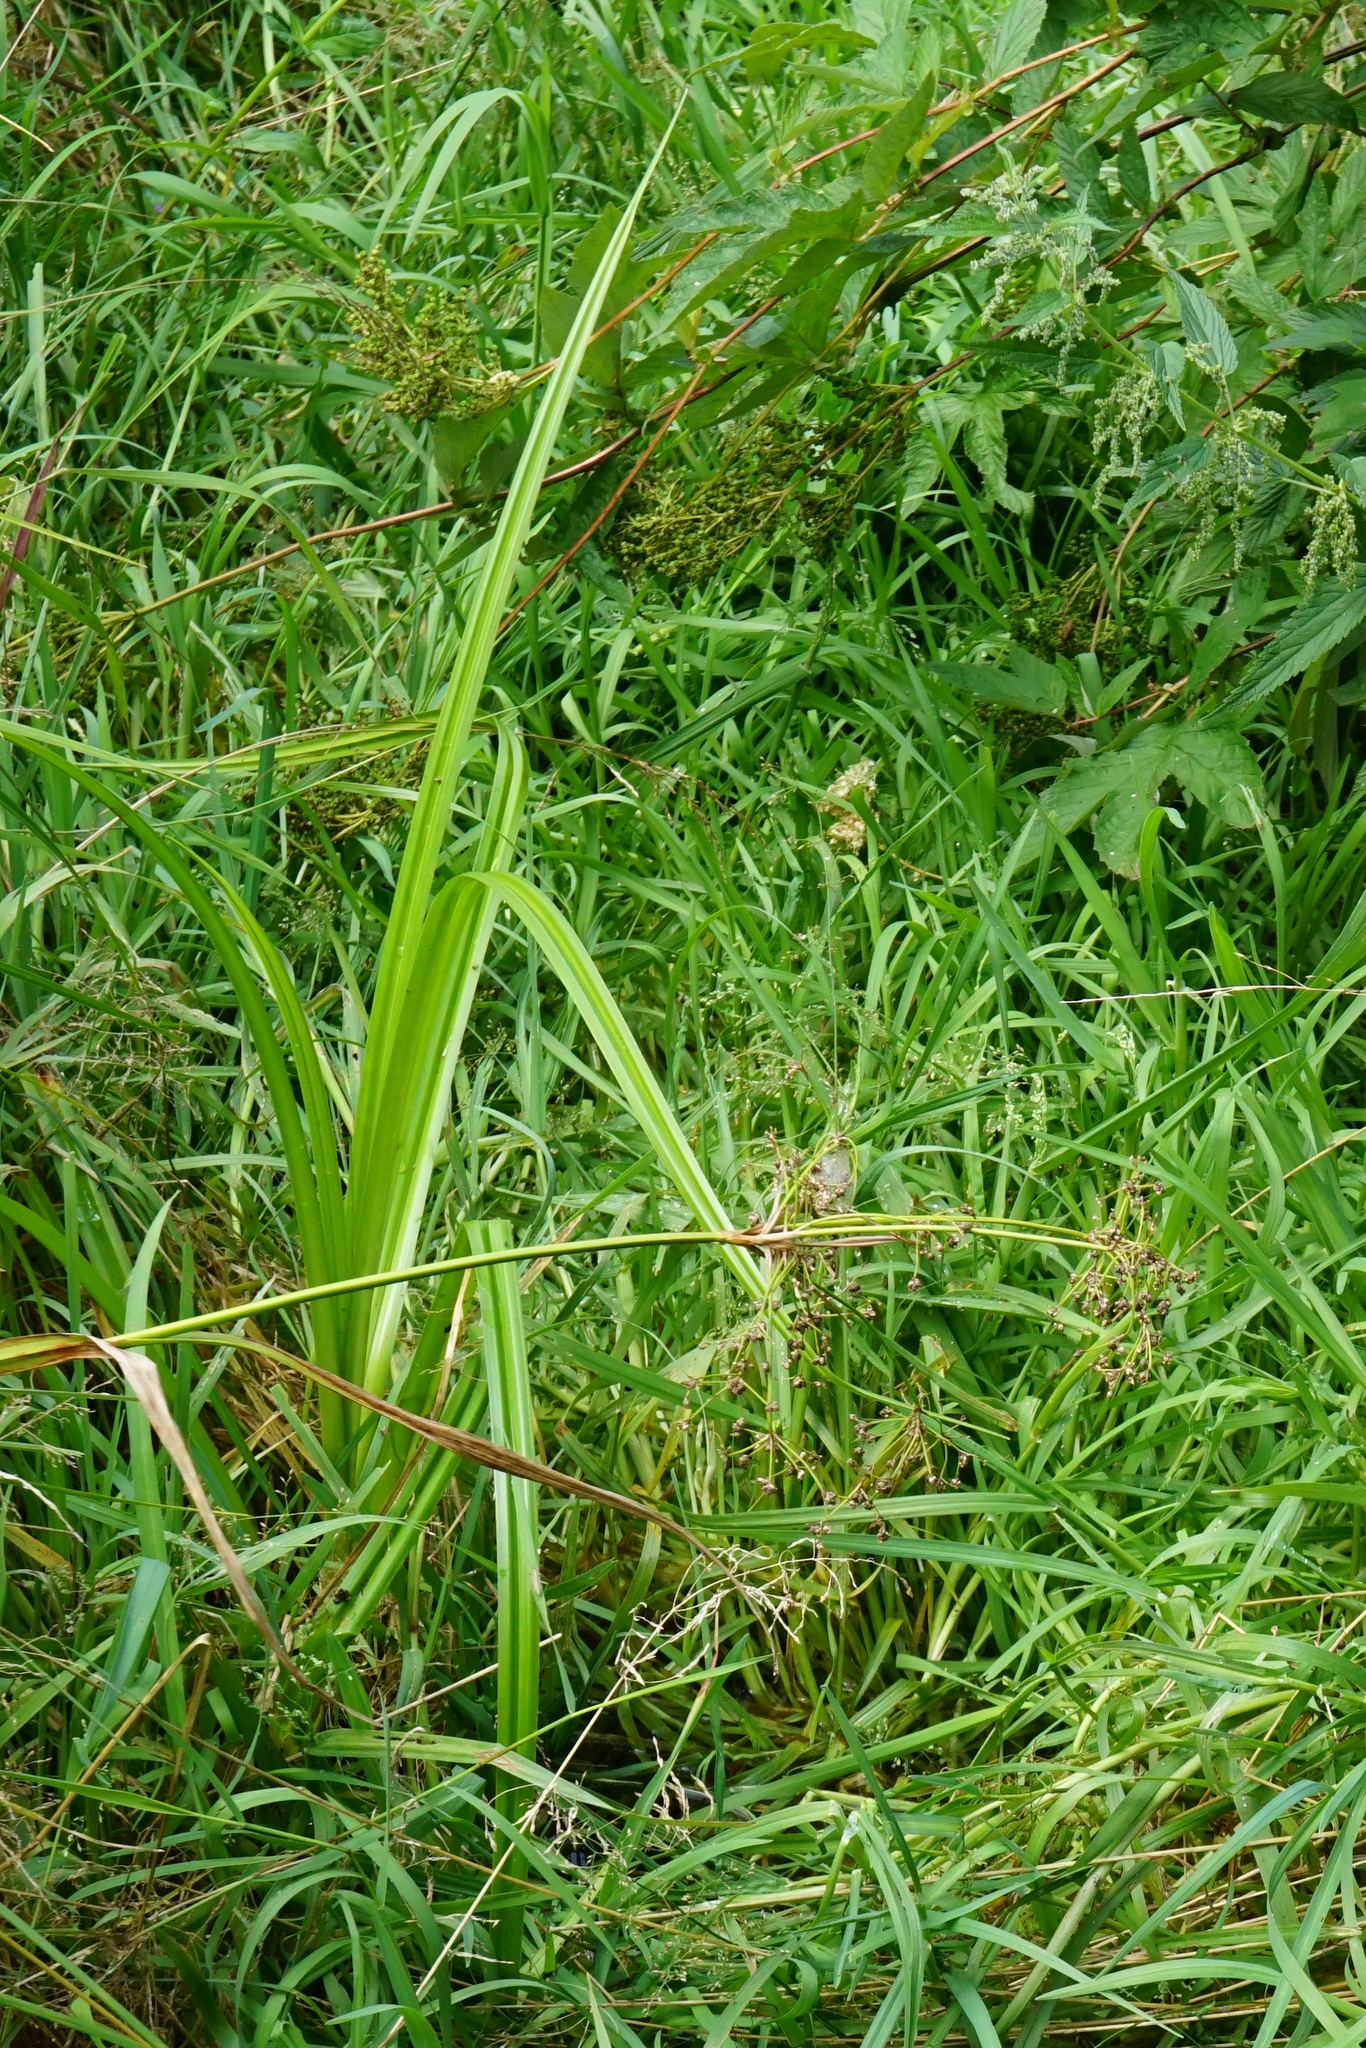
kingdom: Plantae
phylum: Tracheophyta
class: Liliopsida
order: Poales
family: Cyperaceae
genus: Scirpus
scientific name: Scirpus sylvaticus
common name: Wood club-rush
